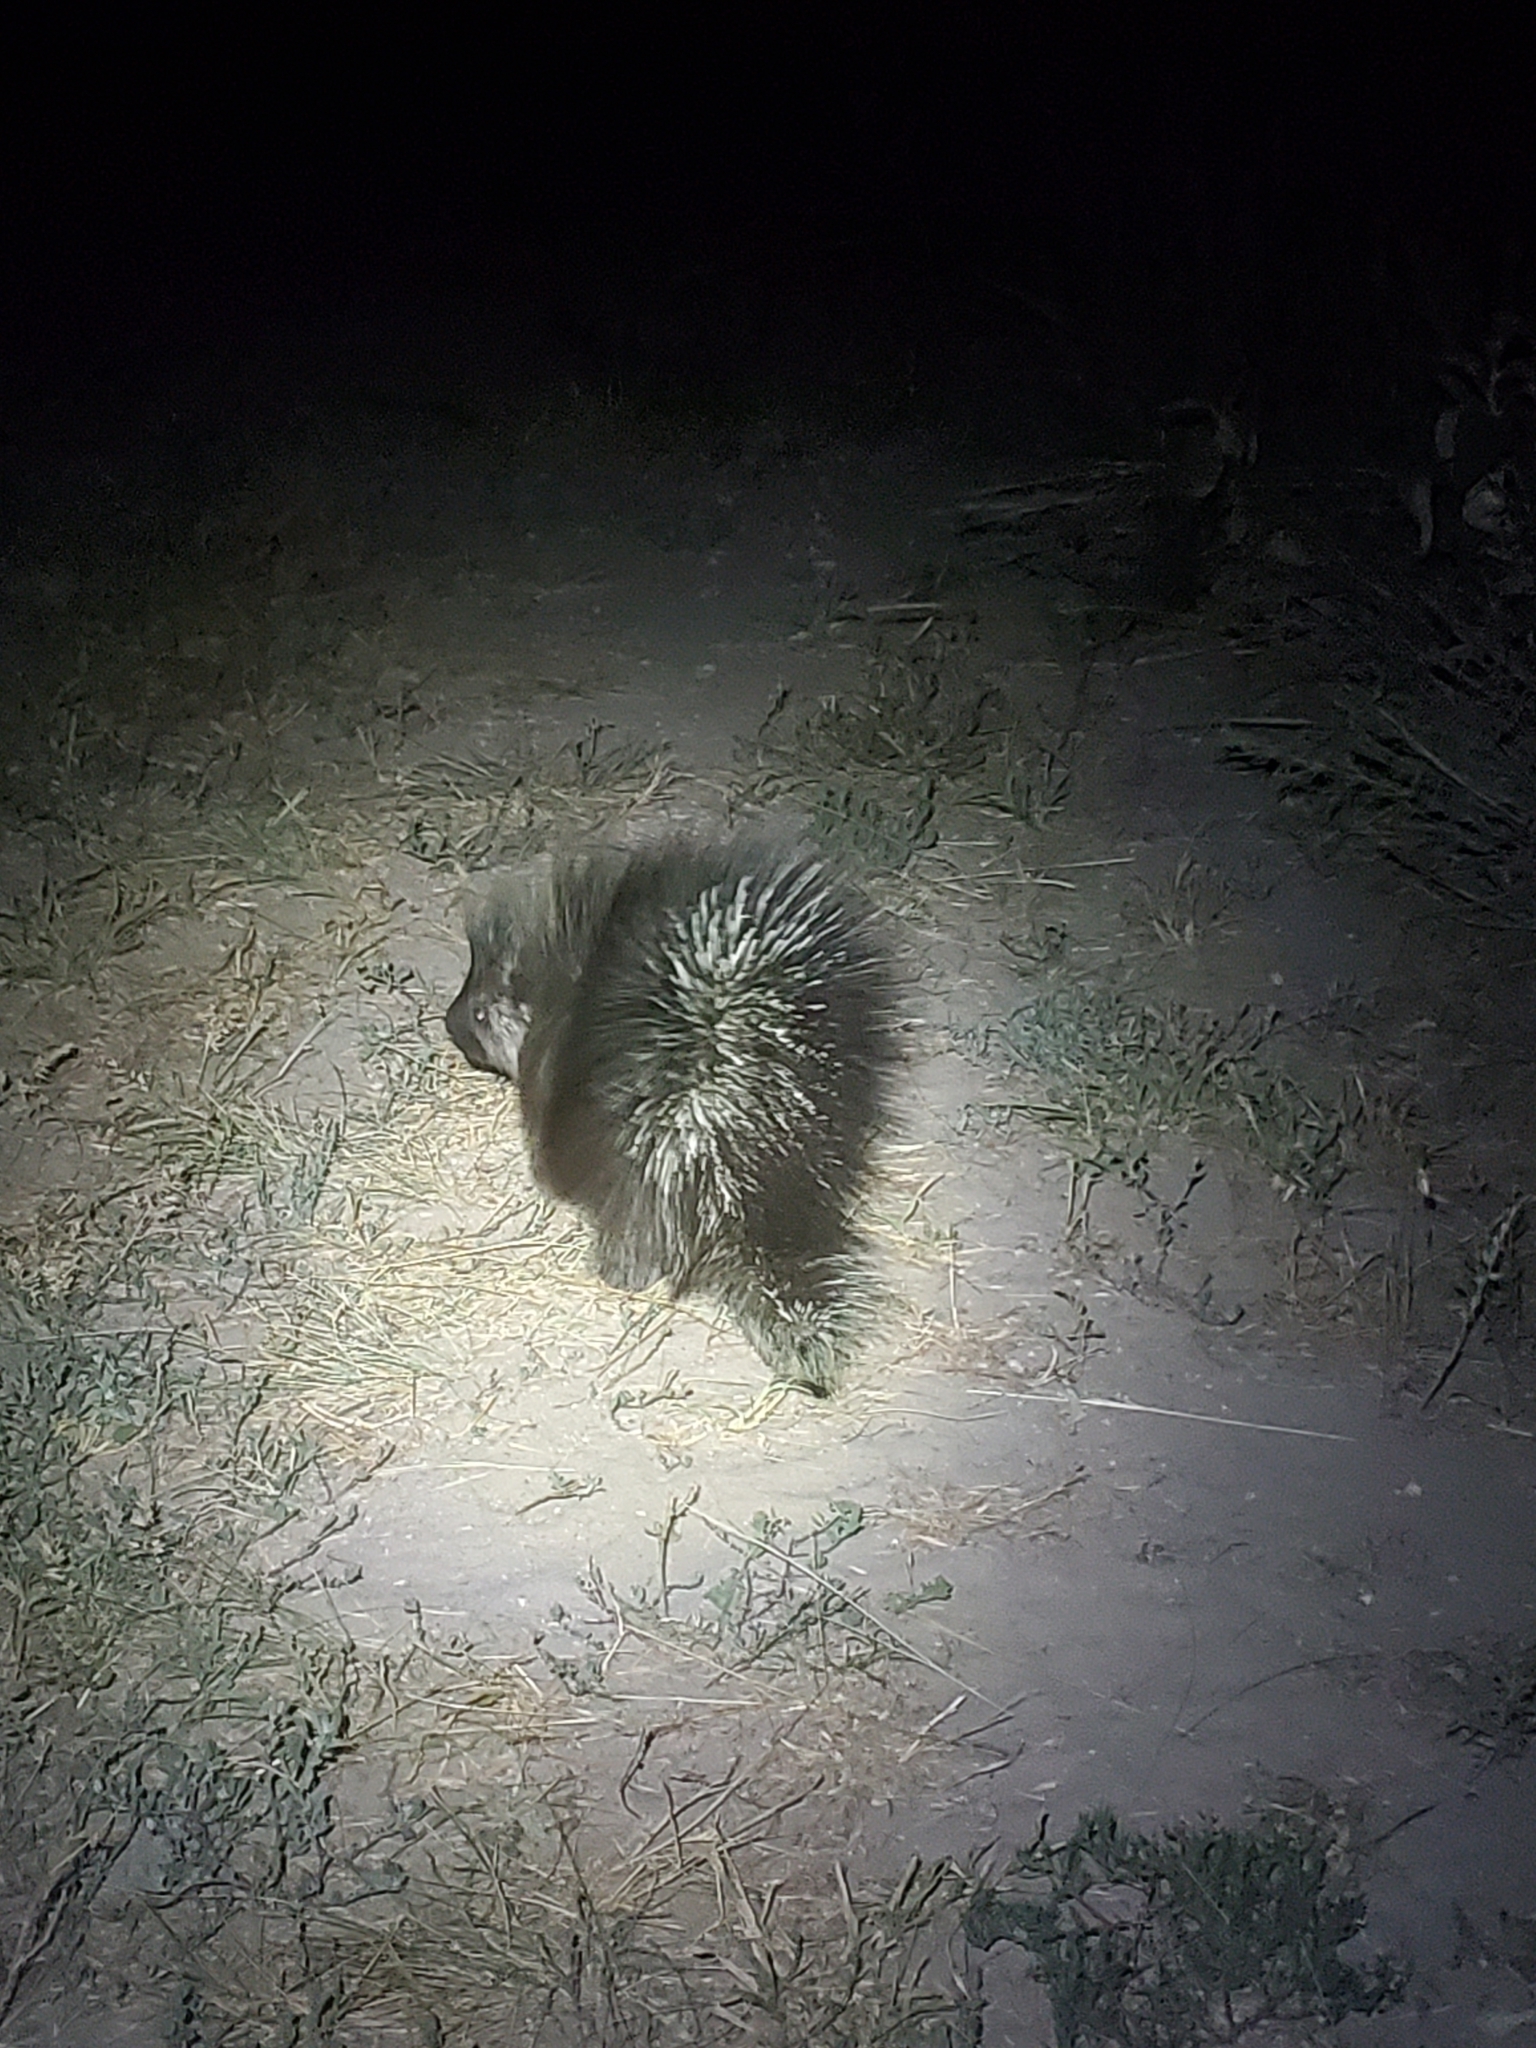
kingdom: Animalia
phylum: Chordata
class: Mammalia
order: Rodentia
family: Erethizontidae
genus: Erethizon
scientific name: Erethizon dorsatus
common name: North american porcupine
